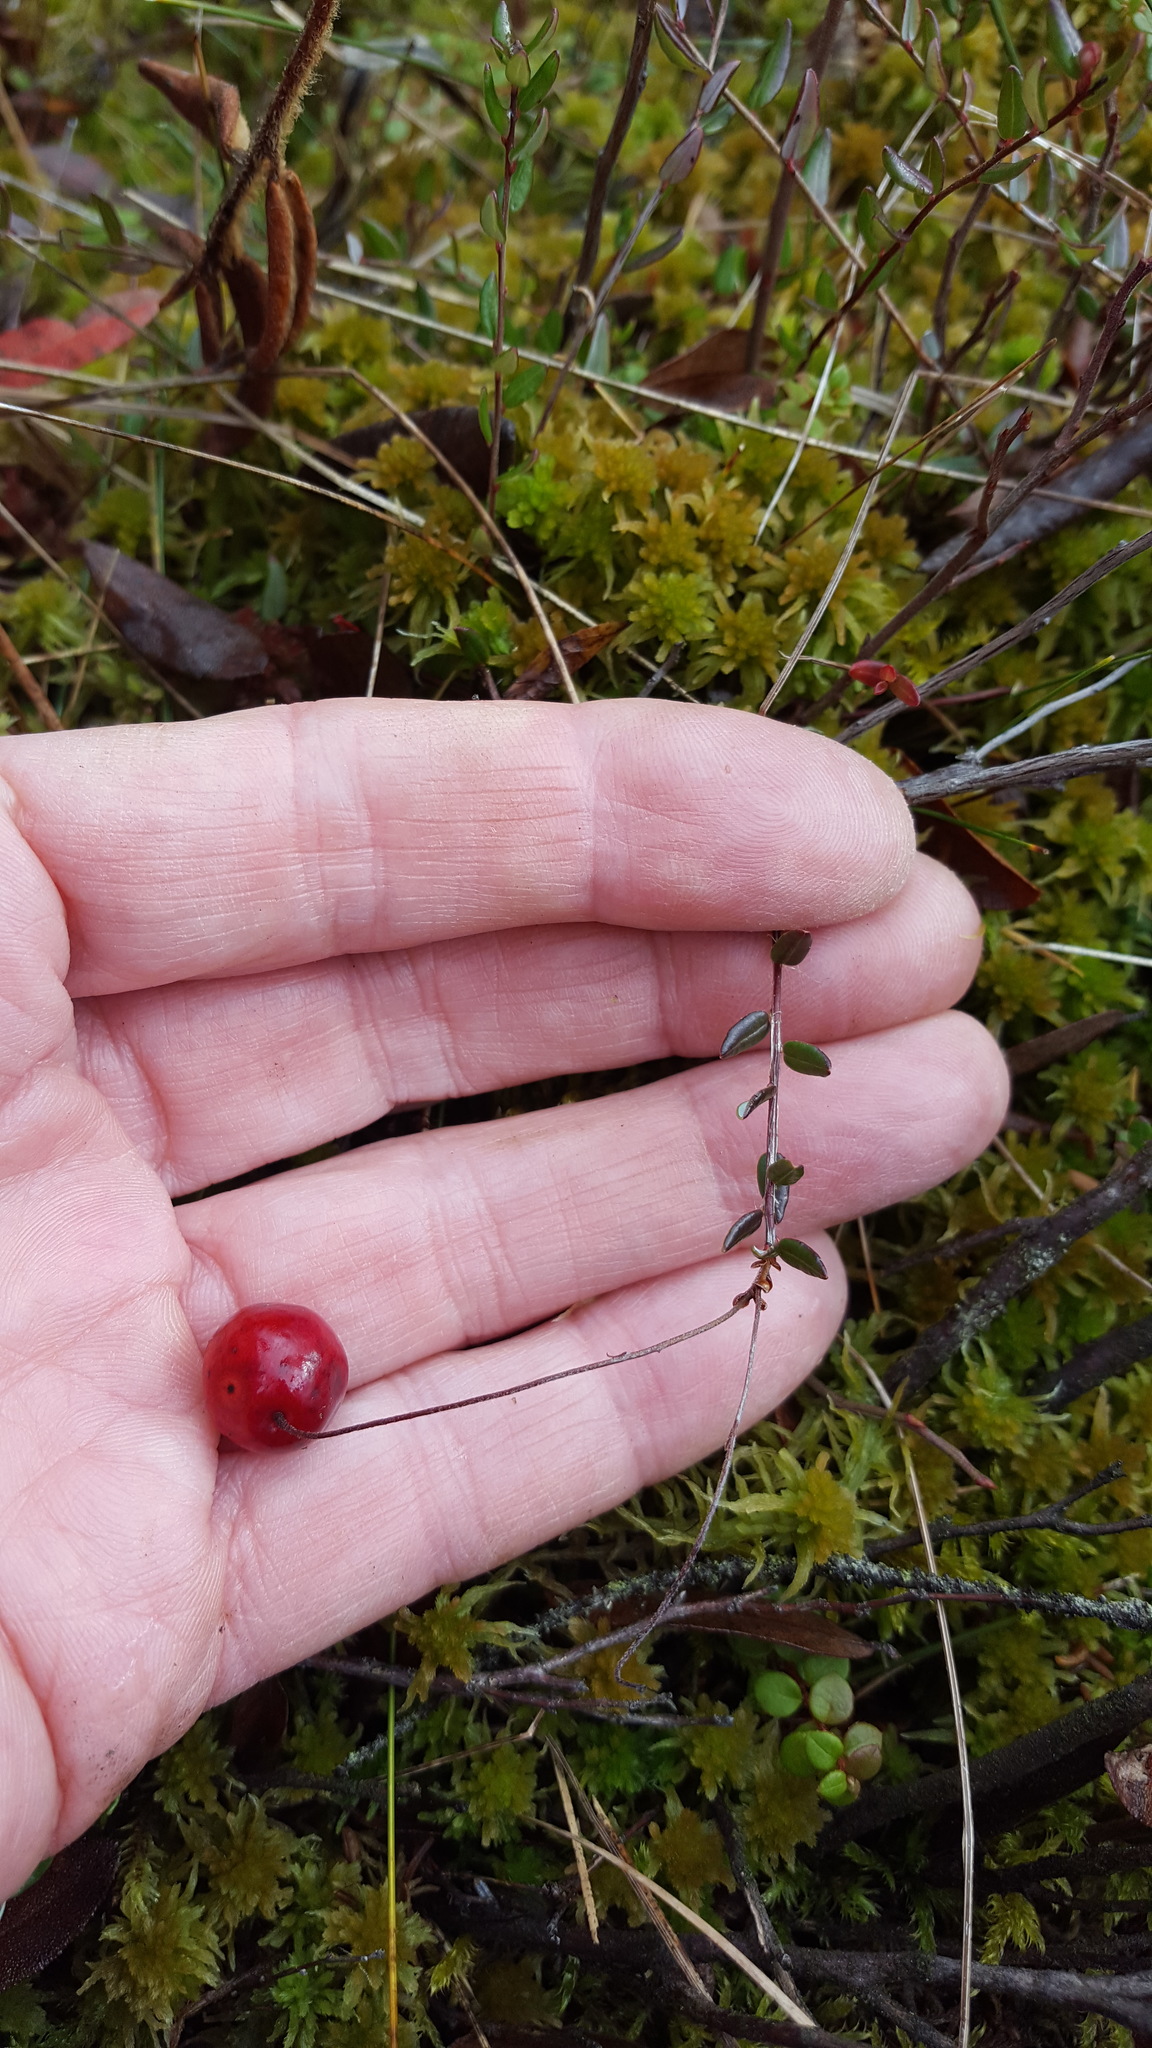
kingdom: Plantae
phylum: Tracheophyta
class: Magnoliopsida
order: Ericales
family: Ericaceae
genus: Vaccinium
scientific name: Vaccinium oxycoccos
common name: Cranberry
